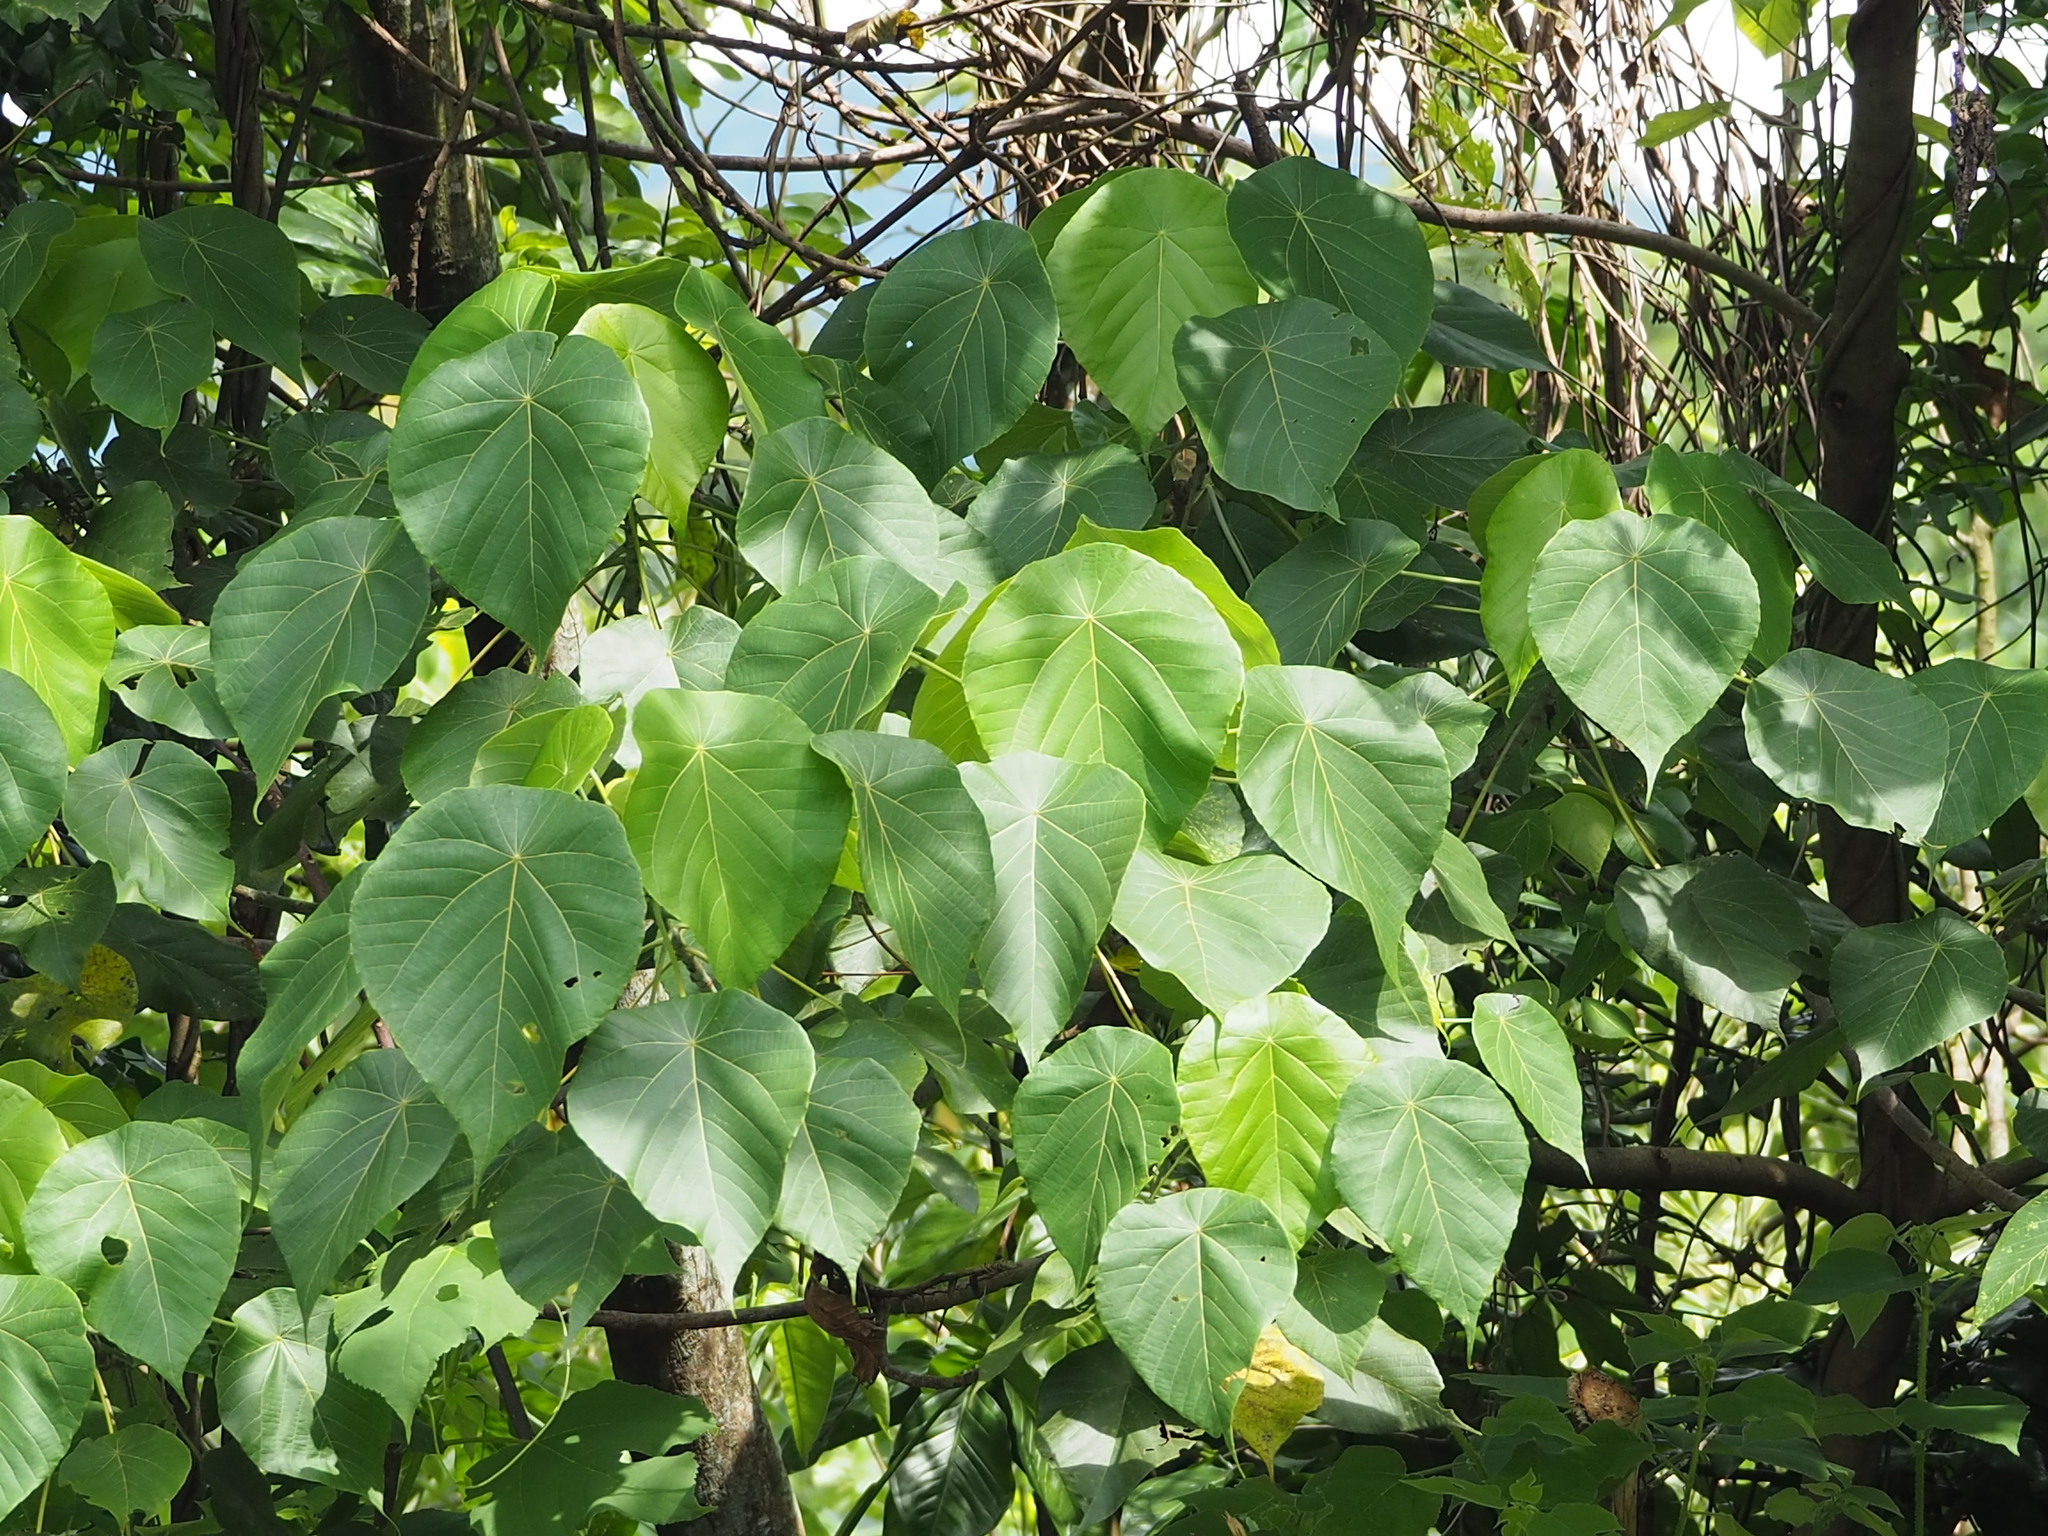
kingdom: Plantae
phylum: Tracheophyta
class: Magnoliopsida
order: Malpighiales
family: Euphorbiaceae
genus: Macaranga
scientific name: Macaranga tanarius
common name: Parasol leaf tree
